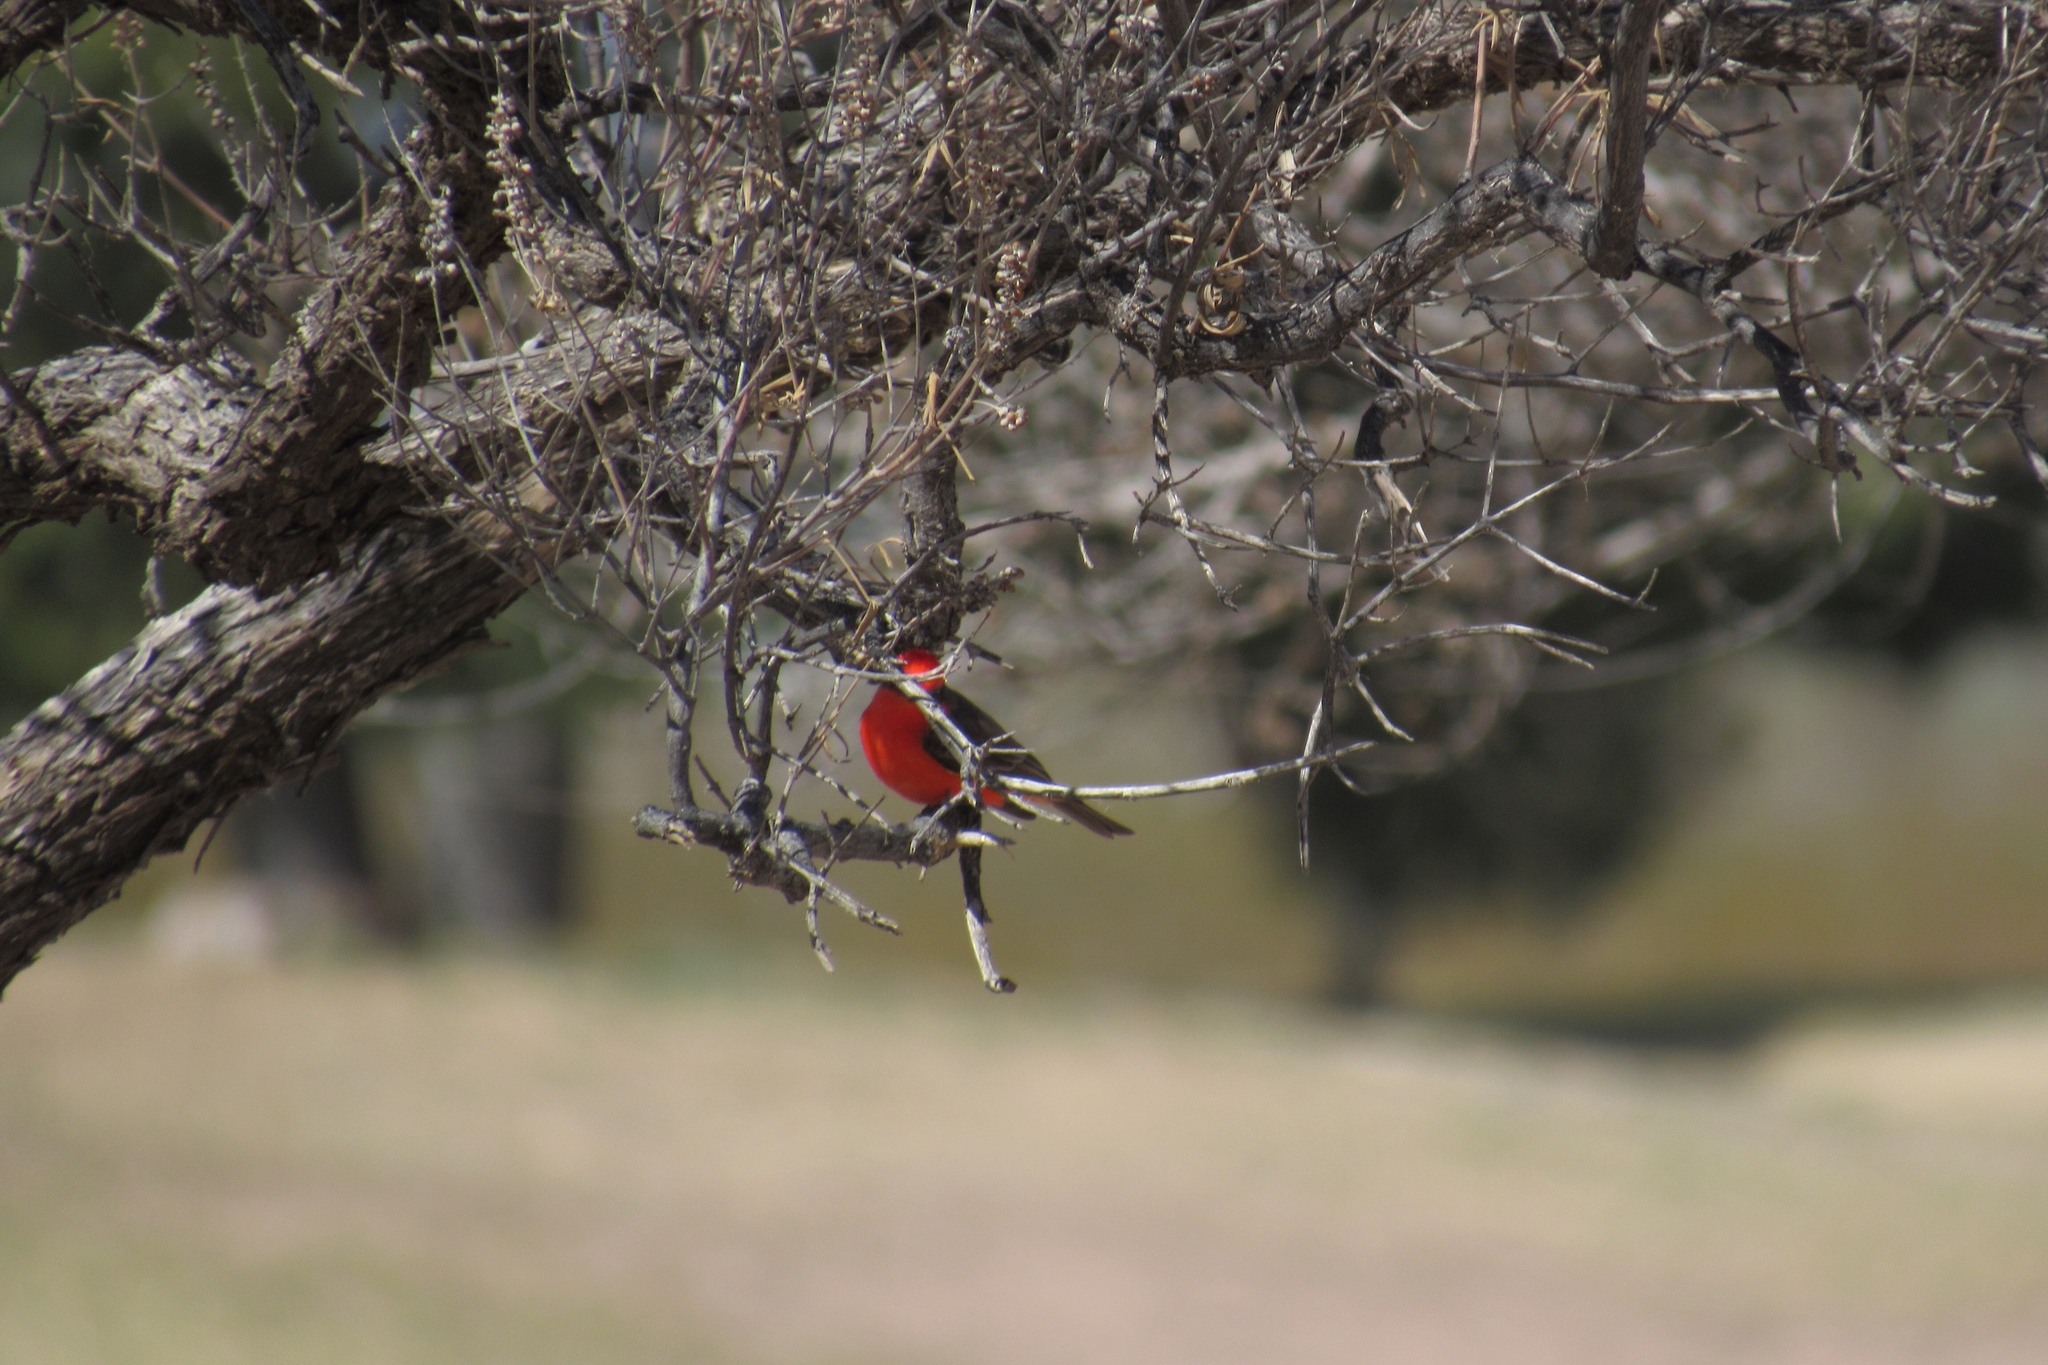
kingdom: Animalia
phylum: Chordata
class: Aves
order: Passeriformes
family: Tyrannidae
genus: Pyrocephalus
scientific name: Pyrocephalus rubinus
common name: Vermilion flycatcher
